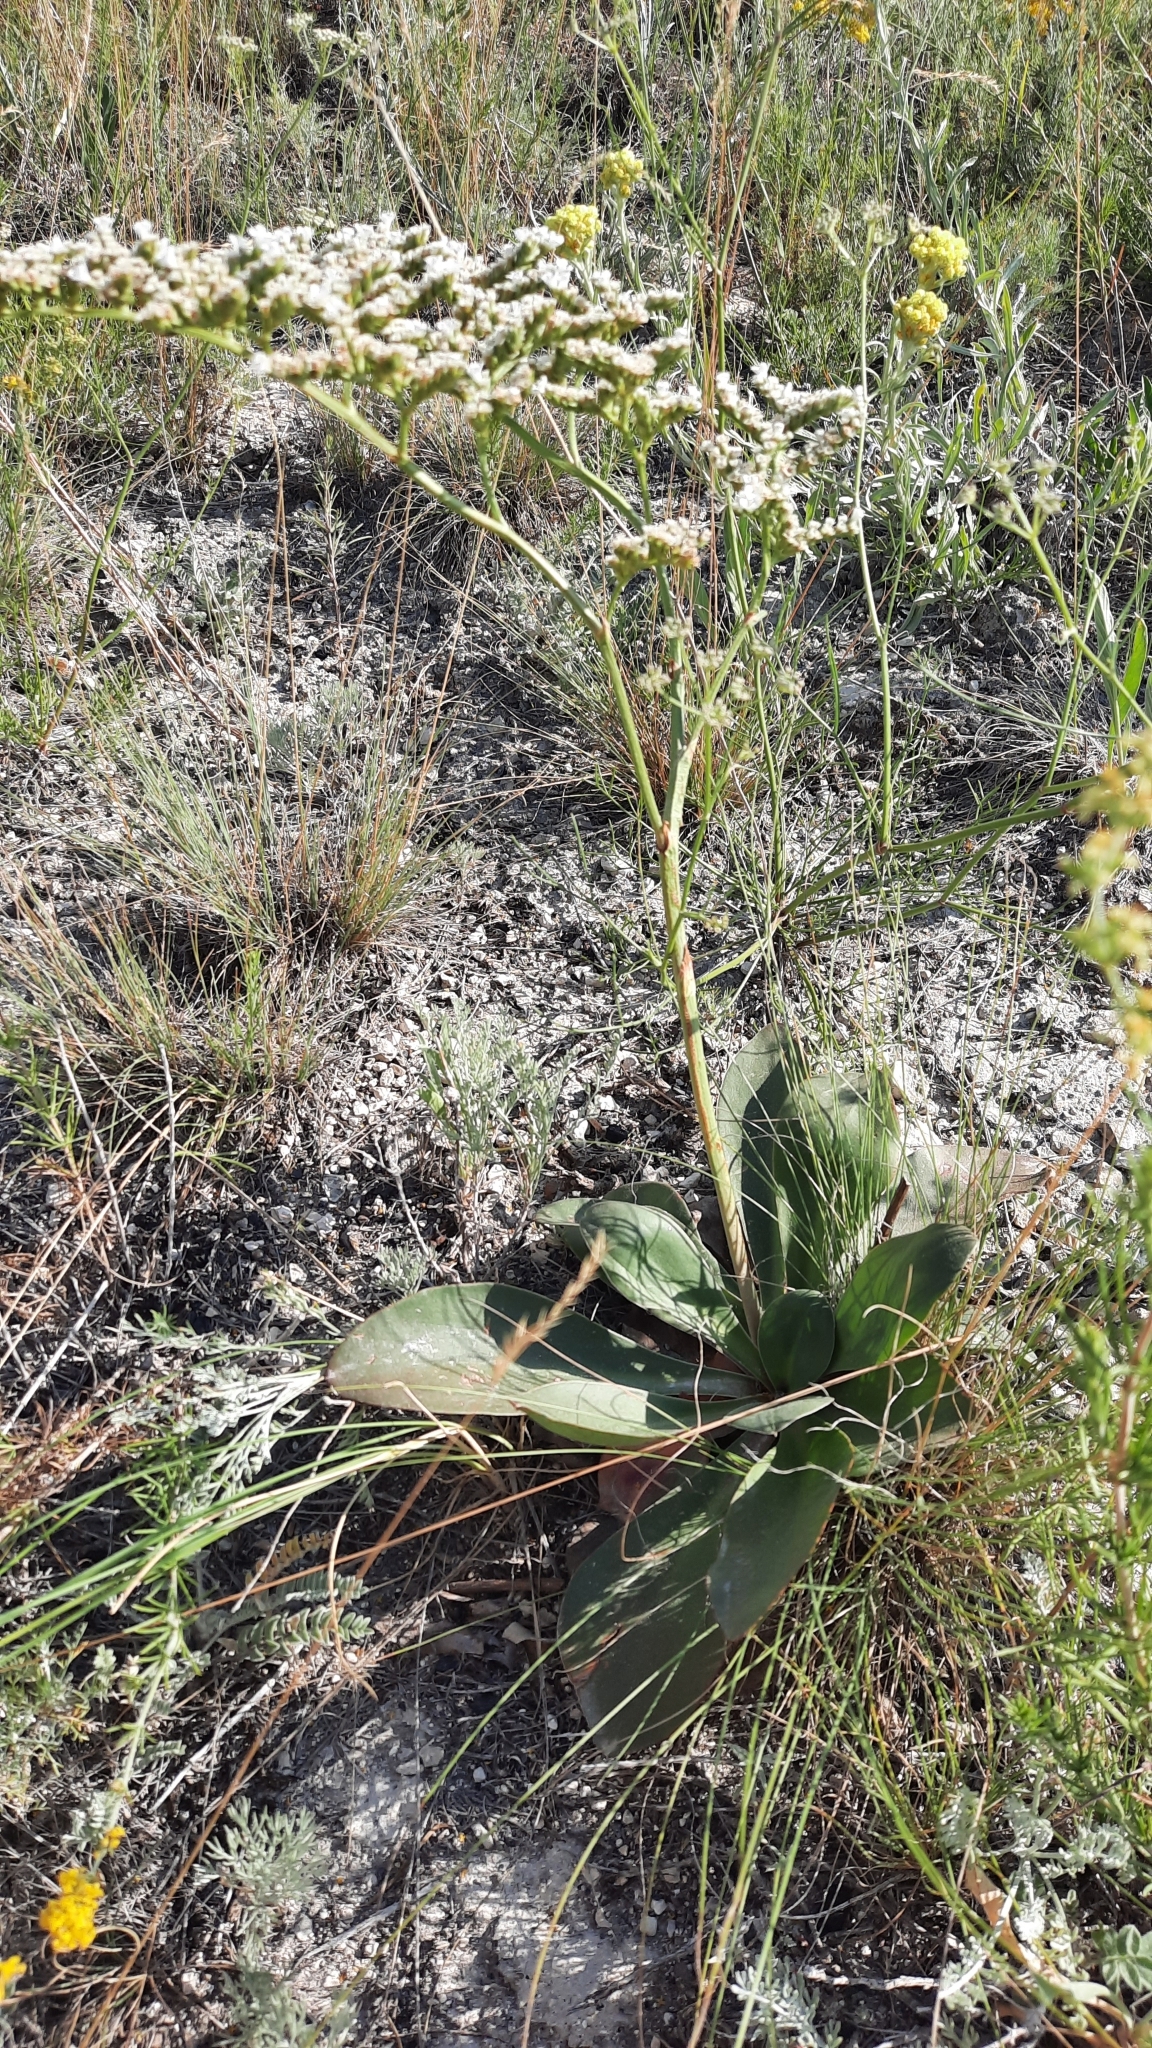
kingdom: Plantae
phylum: Tracheophyta
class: Magnoliopsida
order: Caryophyllales
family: Plumbaginaceae
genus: Goniolimon
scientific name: Goniolimon elatum
